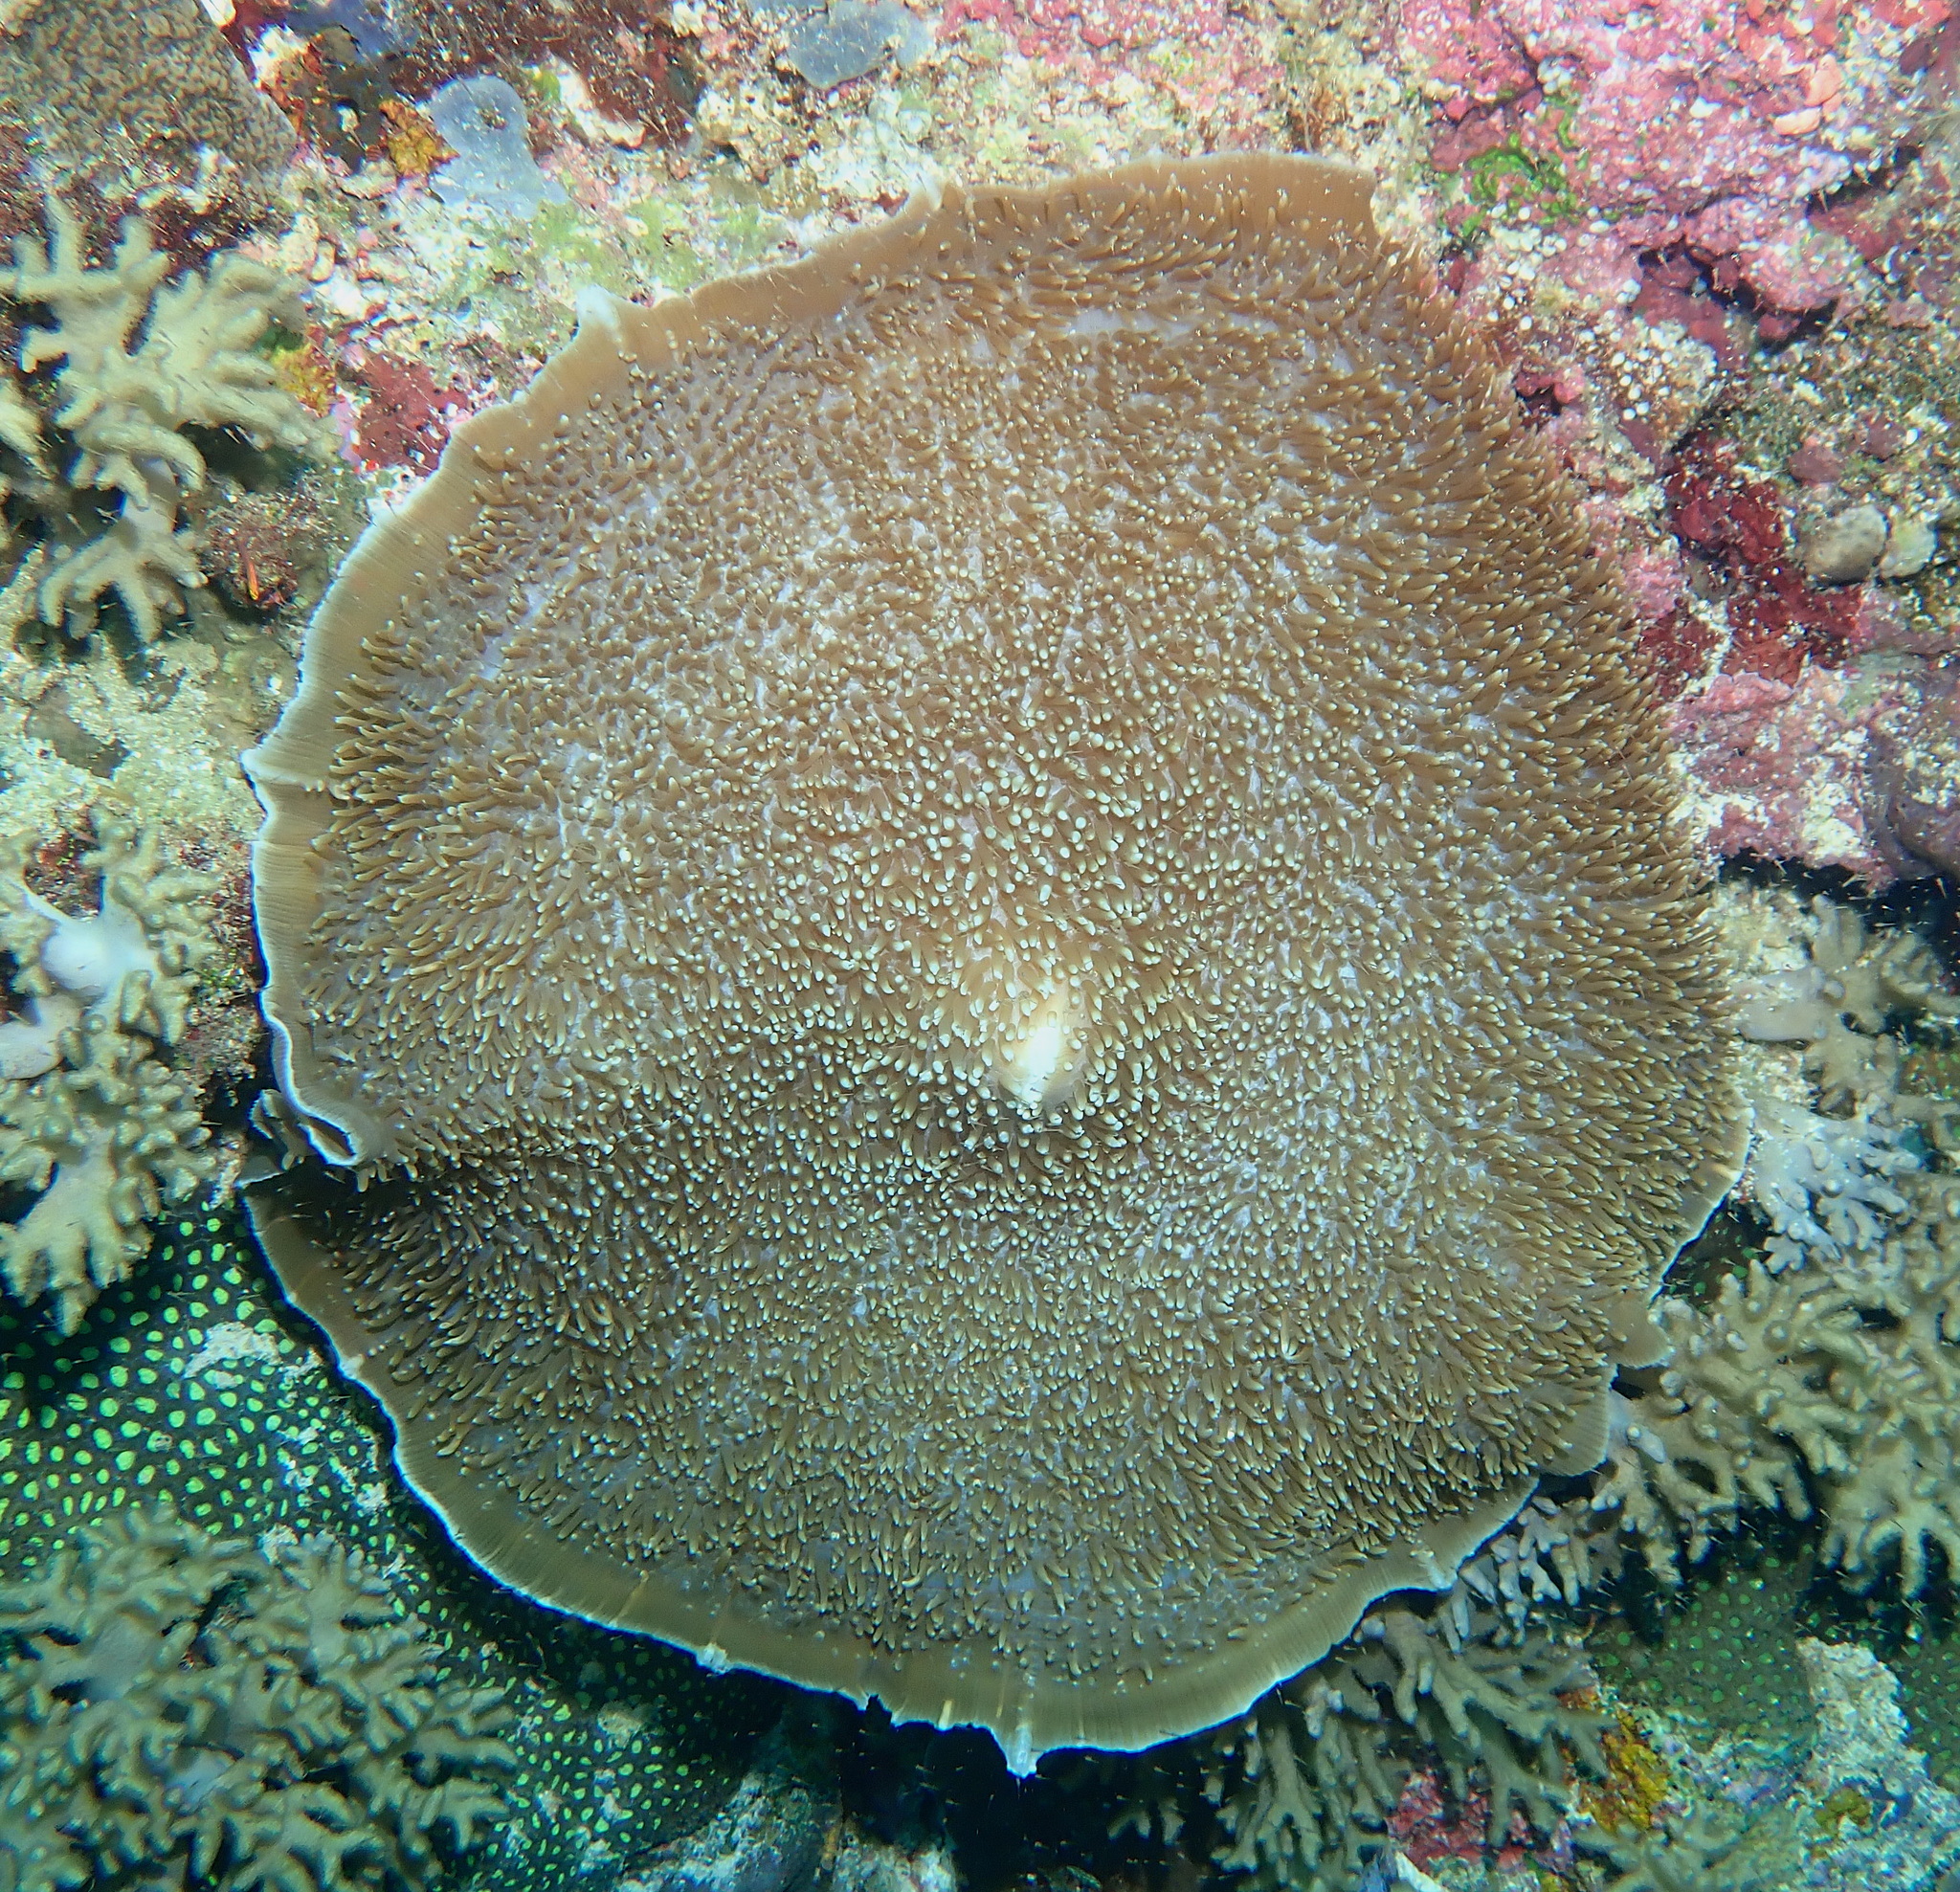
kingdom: Animalia
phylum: Cnidaria
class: Anthozoa
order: Corallimorpharia
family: Discosomidae
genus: Amplexidiscus
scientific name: Amplexidiscus fenestrafer
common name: Elephant ear anemone
